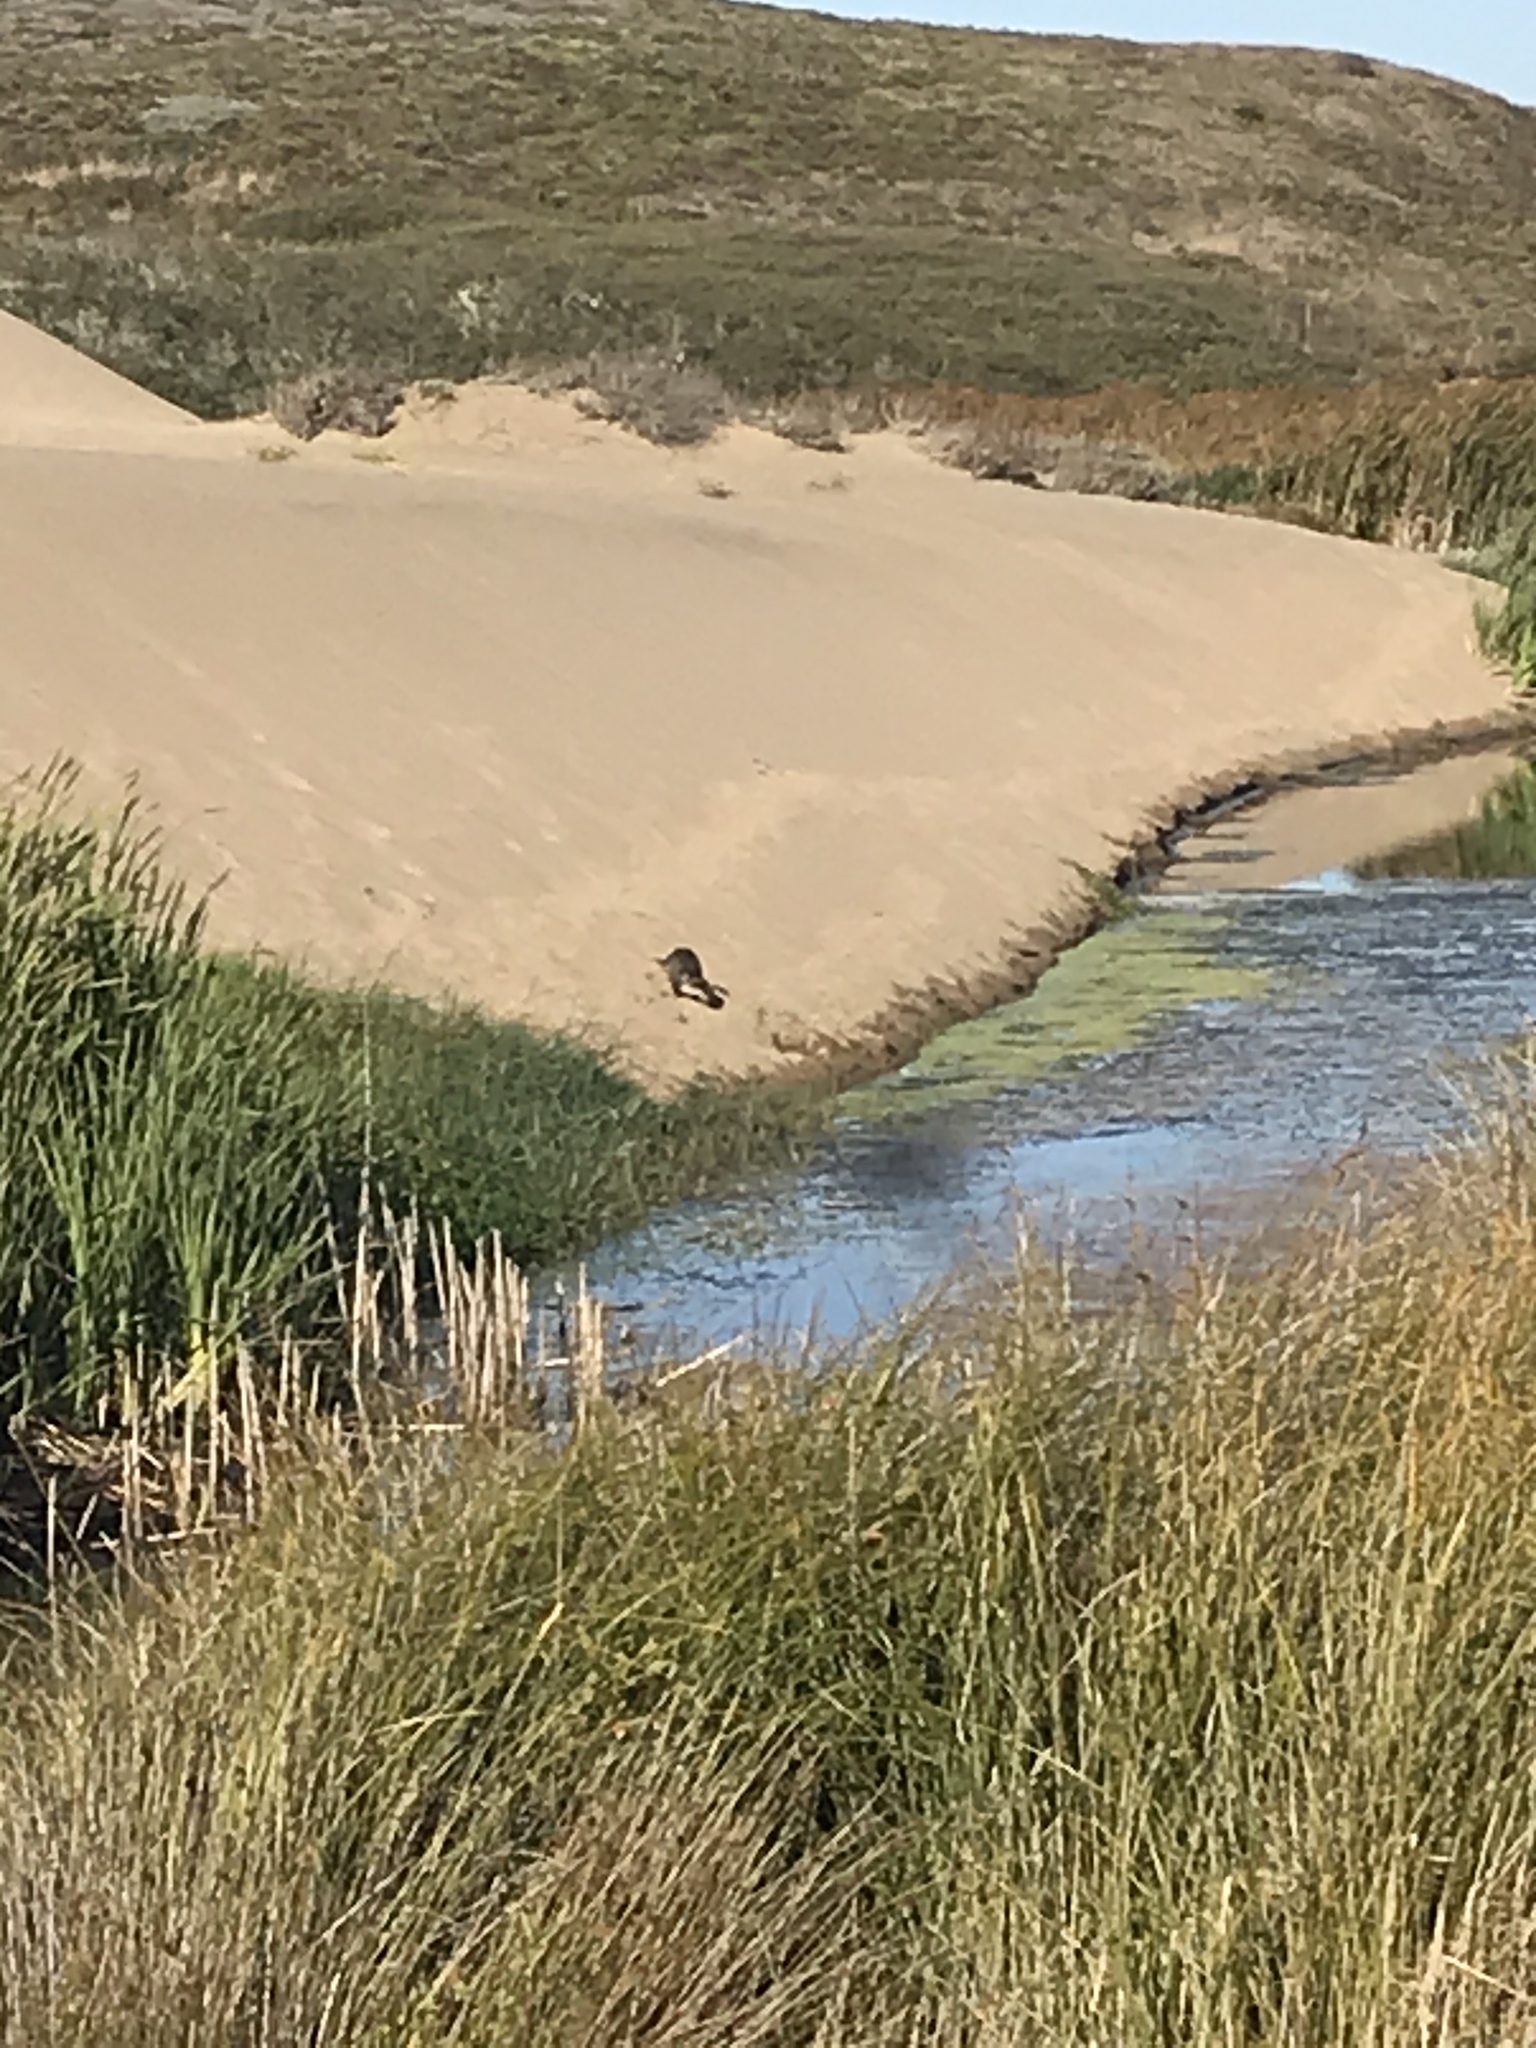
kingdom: Animalia
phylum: Chordata
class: Mammalia
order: Carnivora
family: Mustelidae
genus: Lontra
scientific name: Lontra canadensis
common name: North american river otter
